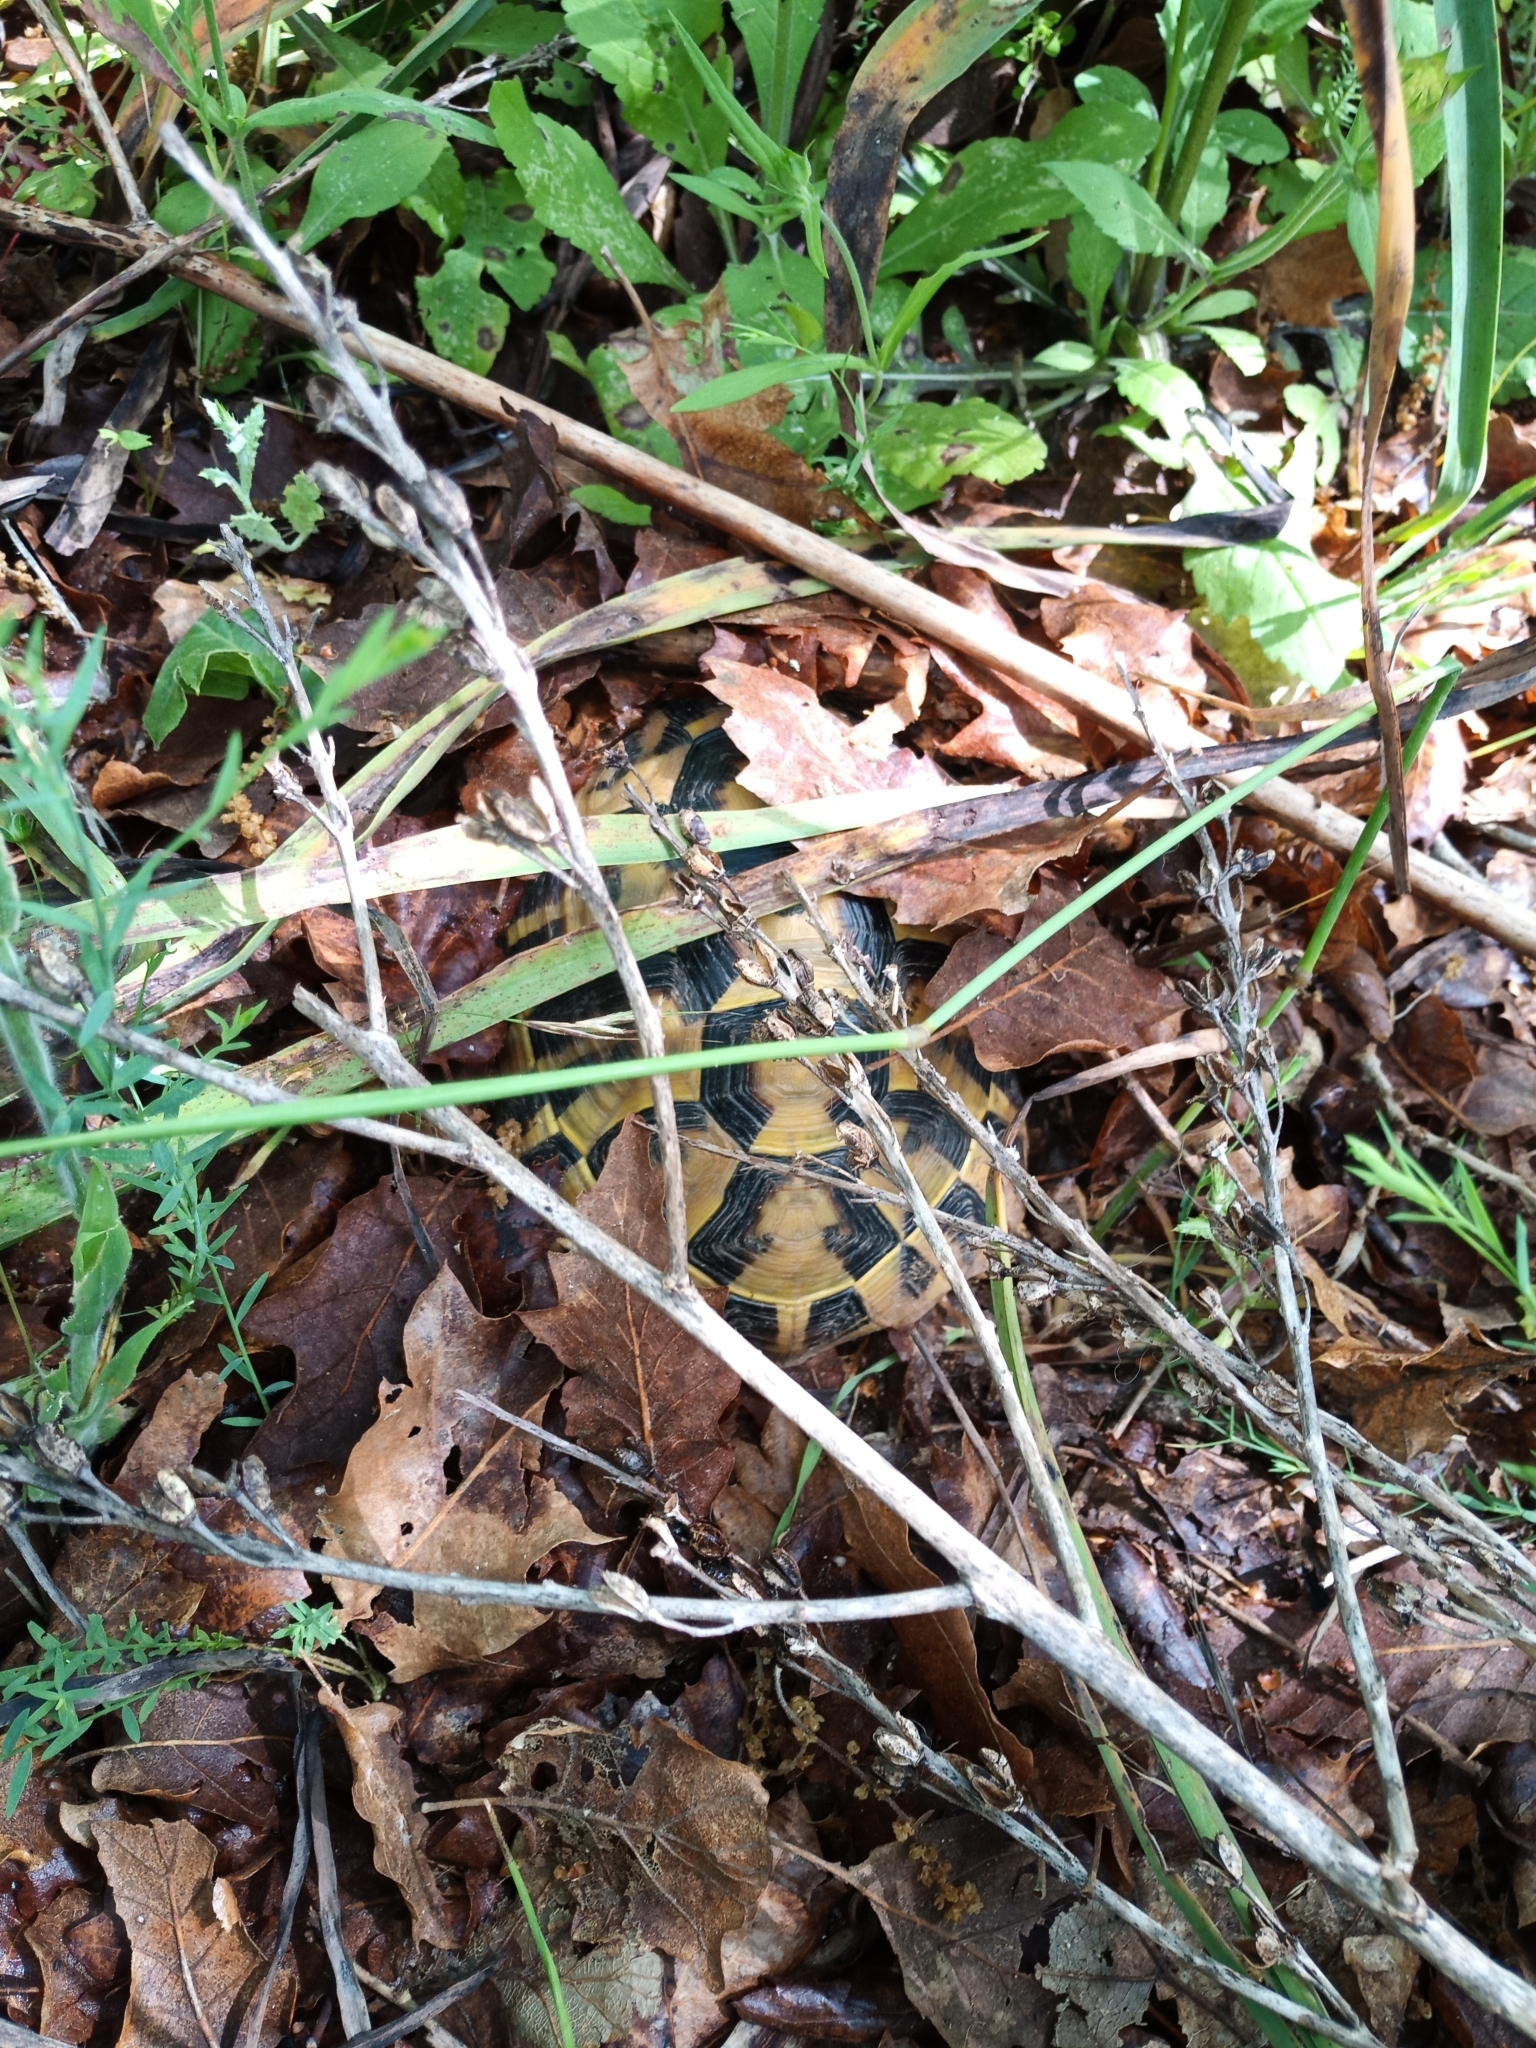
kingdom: Animalia
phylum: Chordata
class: Testudines
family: Testudinidae
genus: Testudo
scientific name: Testudo hermanni
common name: Hermann's tortoise
